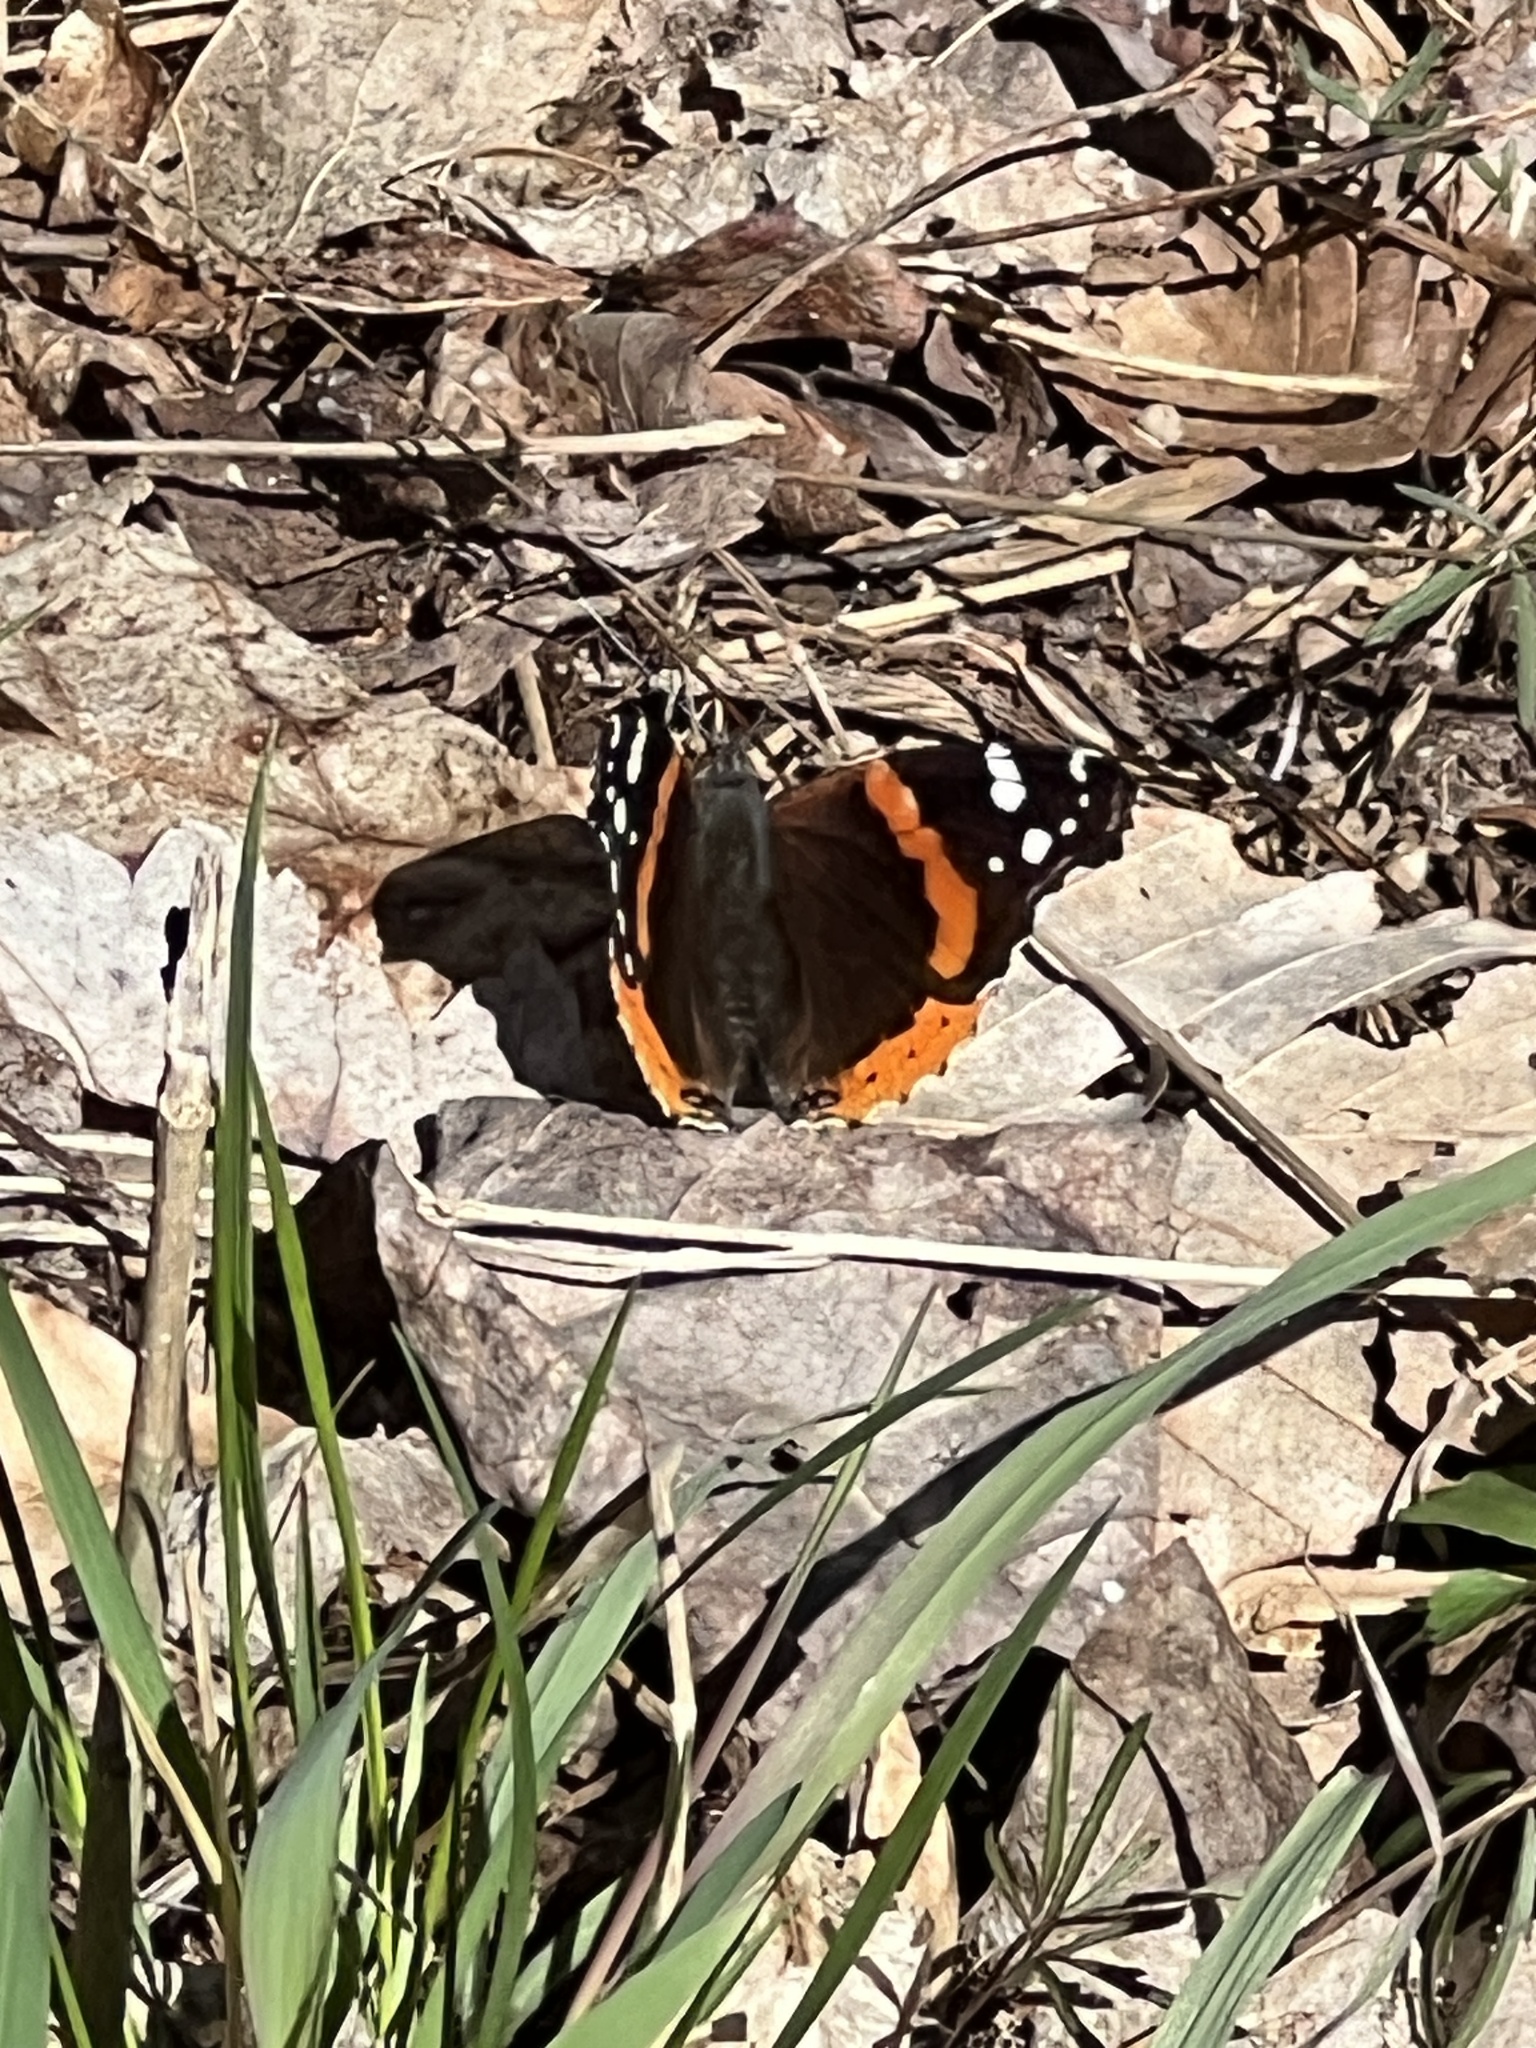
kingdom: Animalia
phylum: Arthropoda
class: Insecta
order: Lepidoptera
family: Nymphalidae
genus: Vanessa
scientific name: Vanessa atalanta
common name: Red admiral
